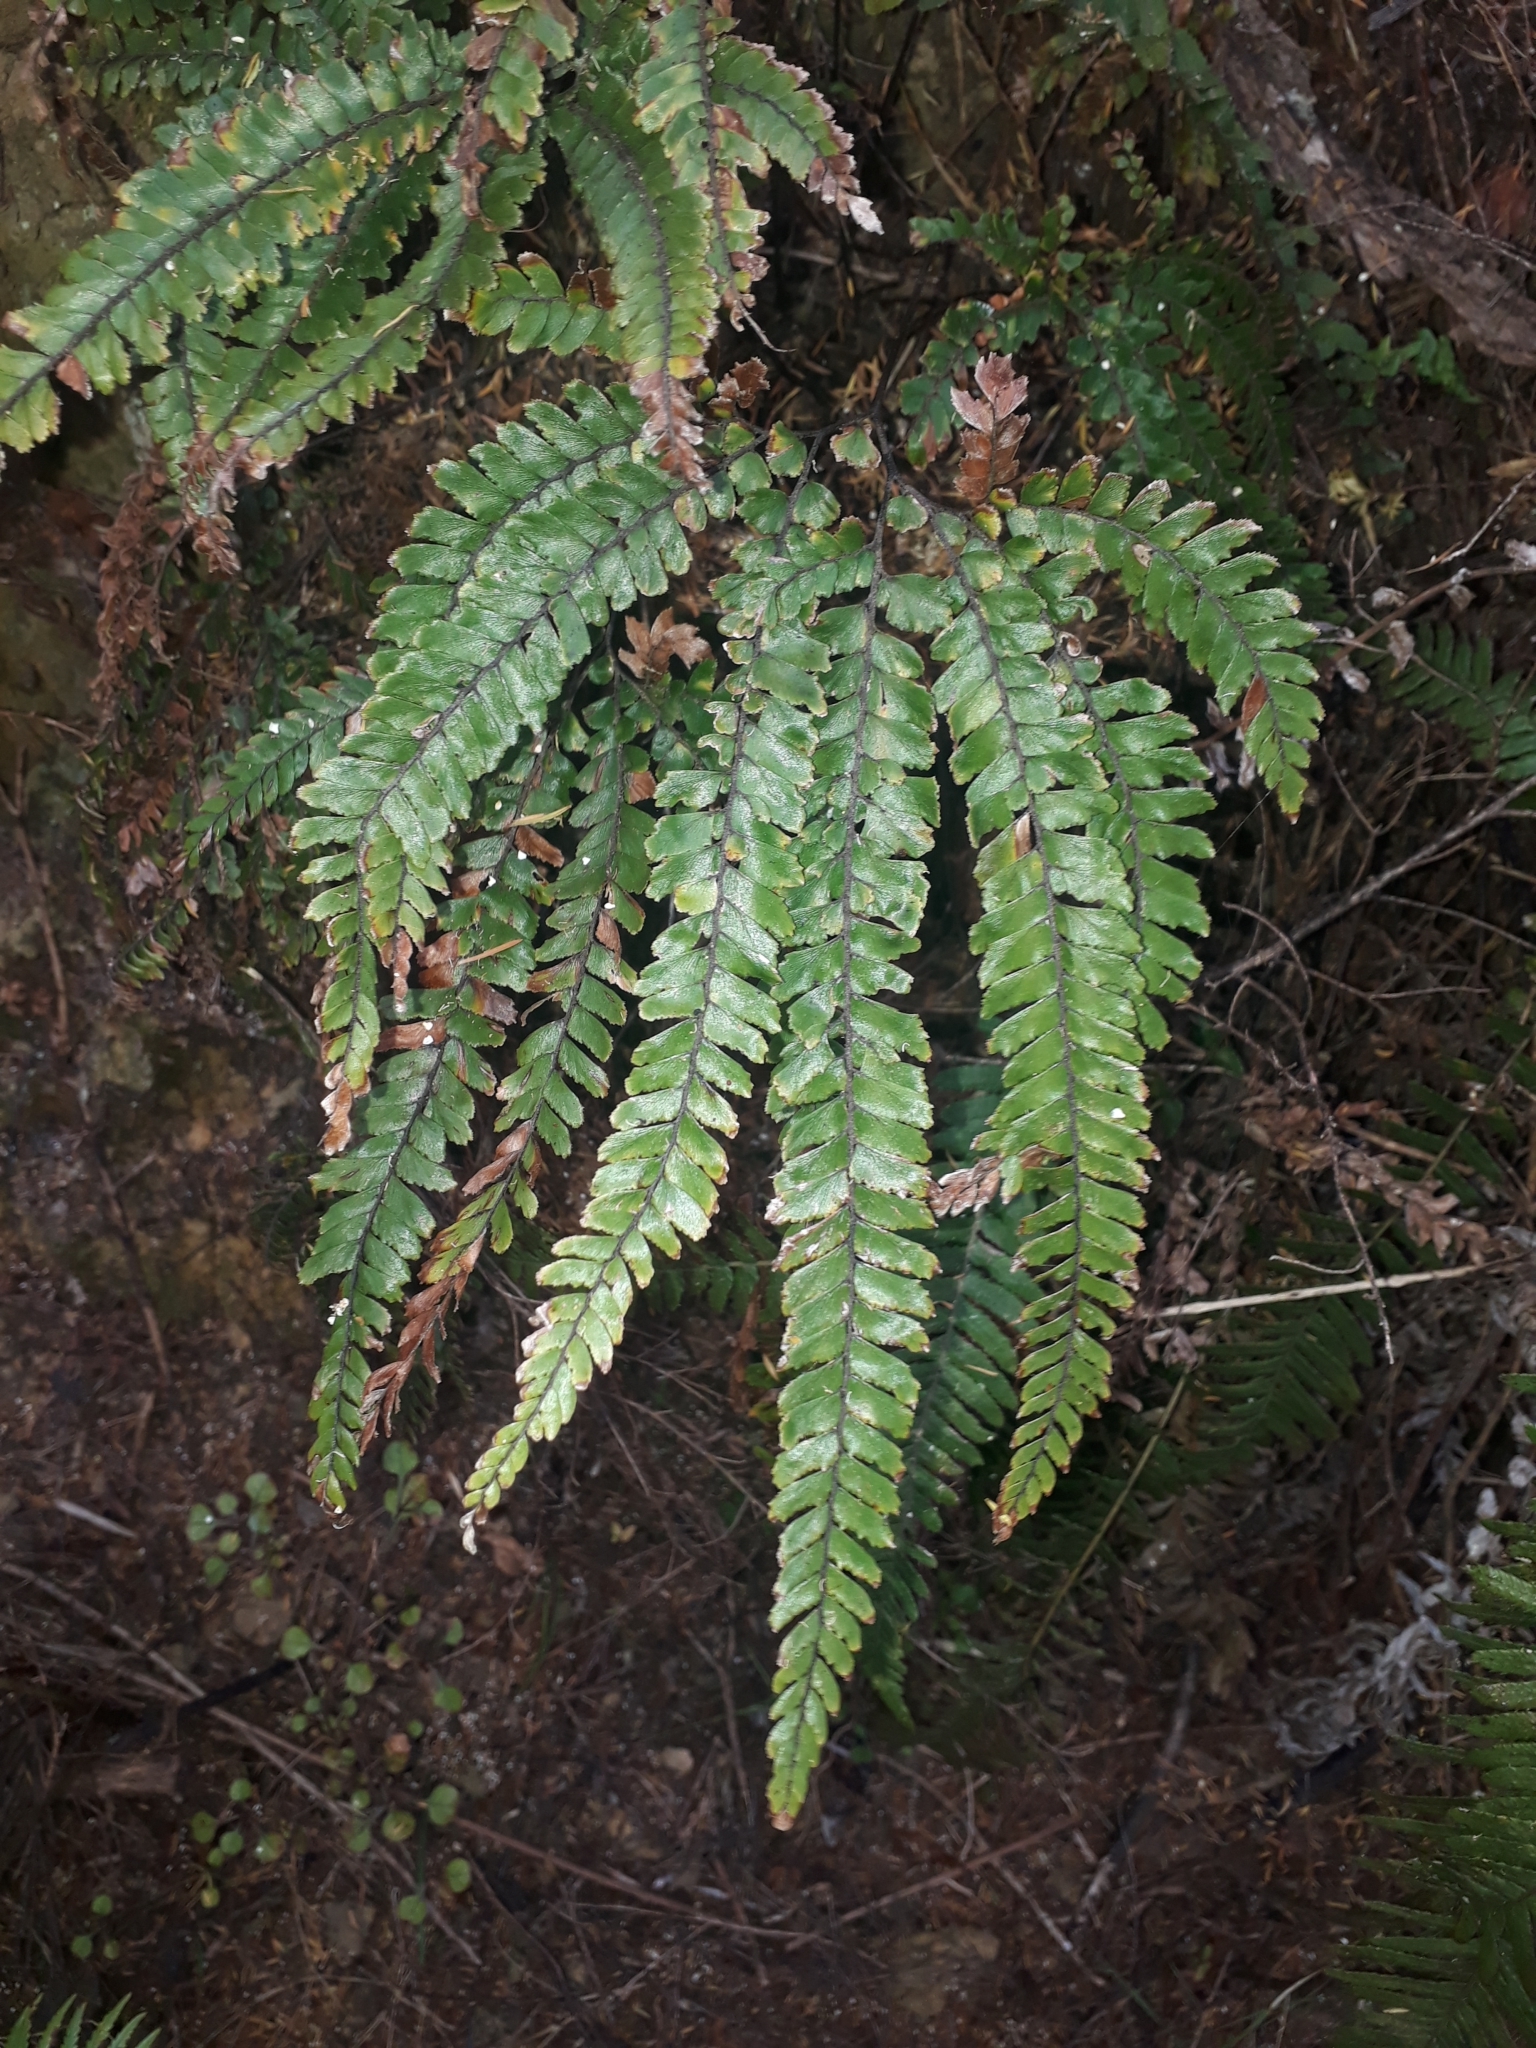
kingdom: Plantae
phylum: Tracheophyta
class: Polypodiopsida
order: Polypodiales
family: Pteridaceae
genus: Adiantum
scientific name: Adiantum hispidulum
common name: Rough maidenhair
